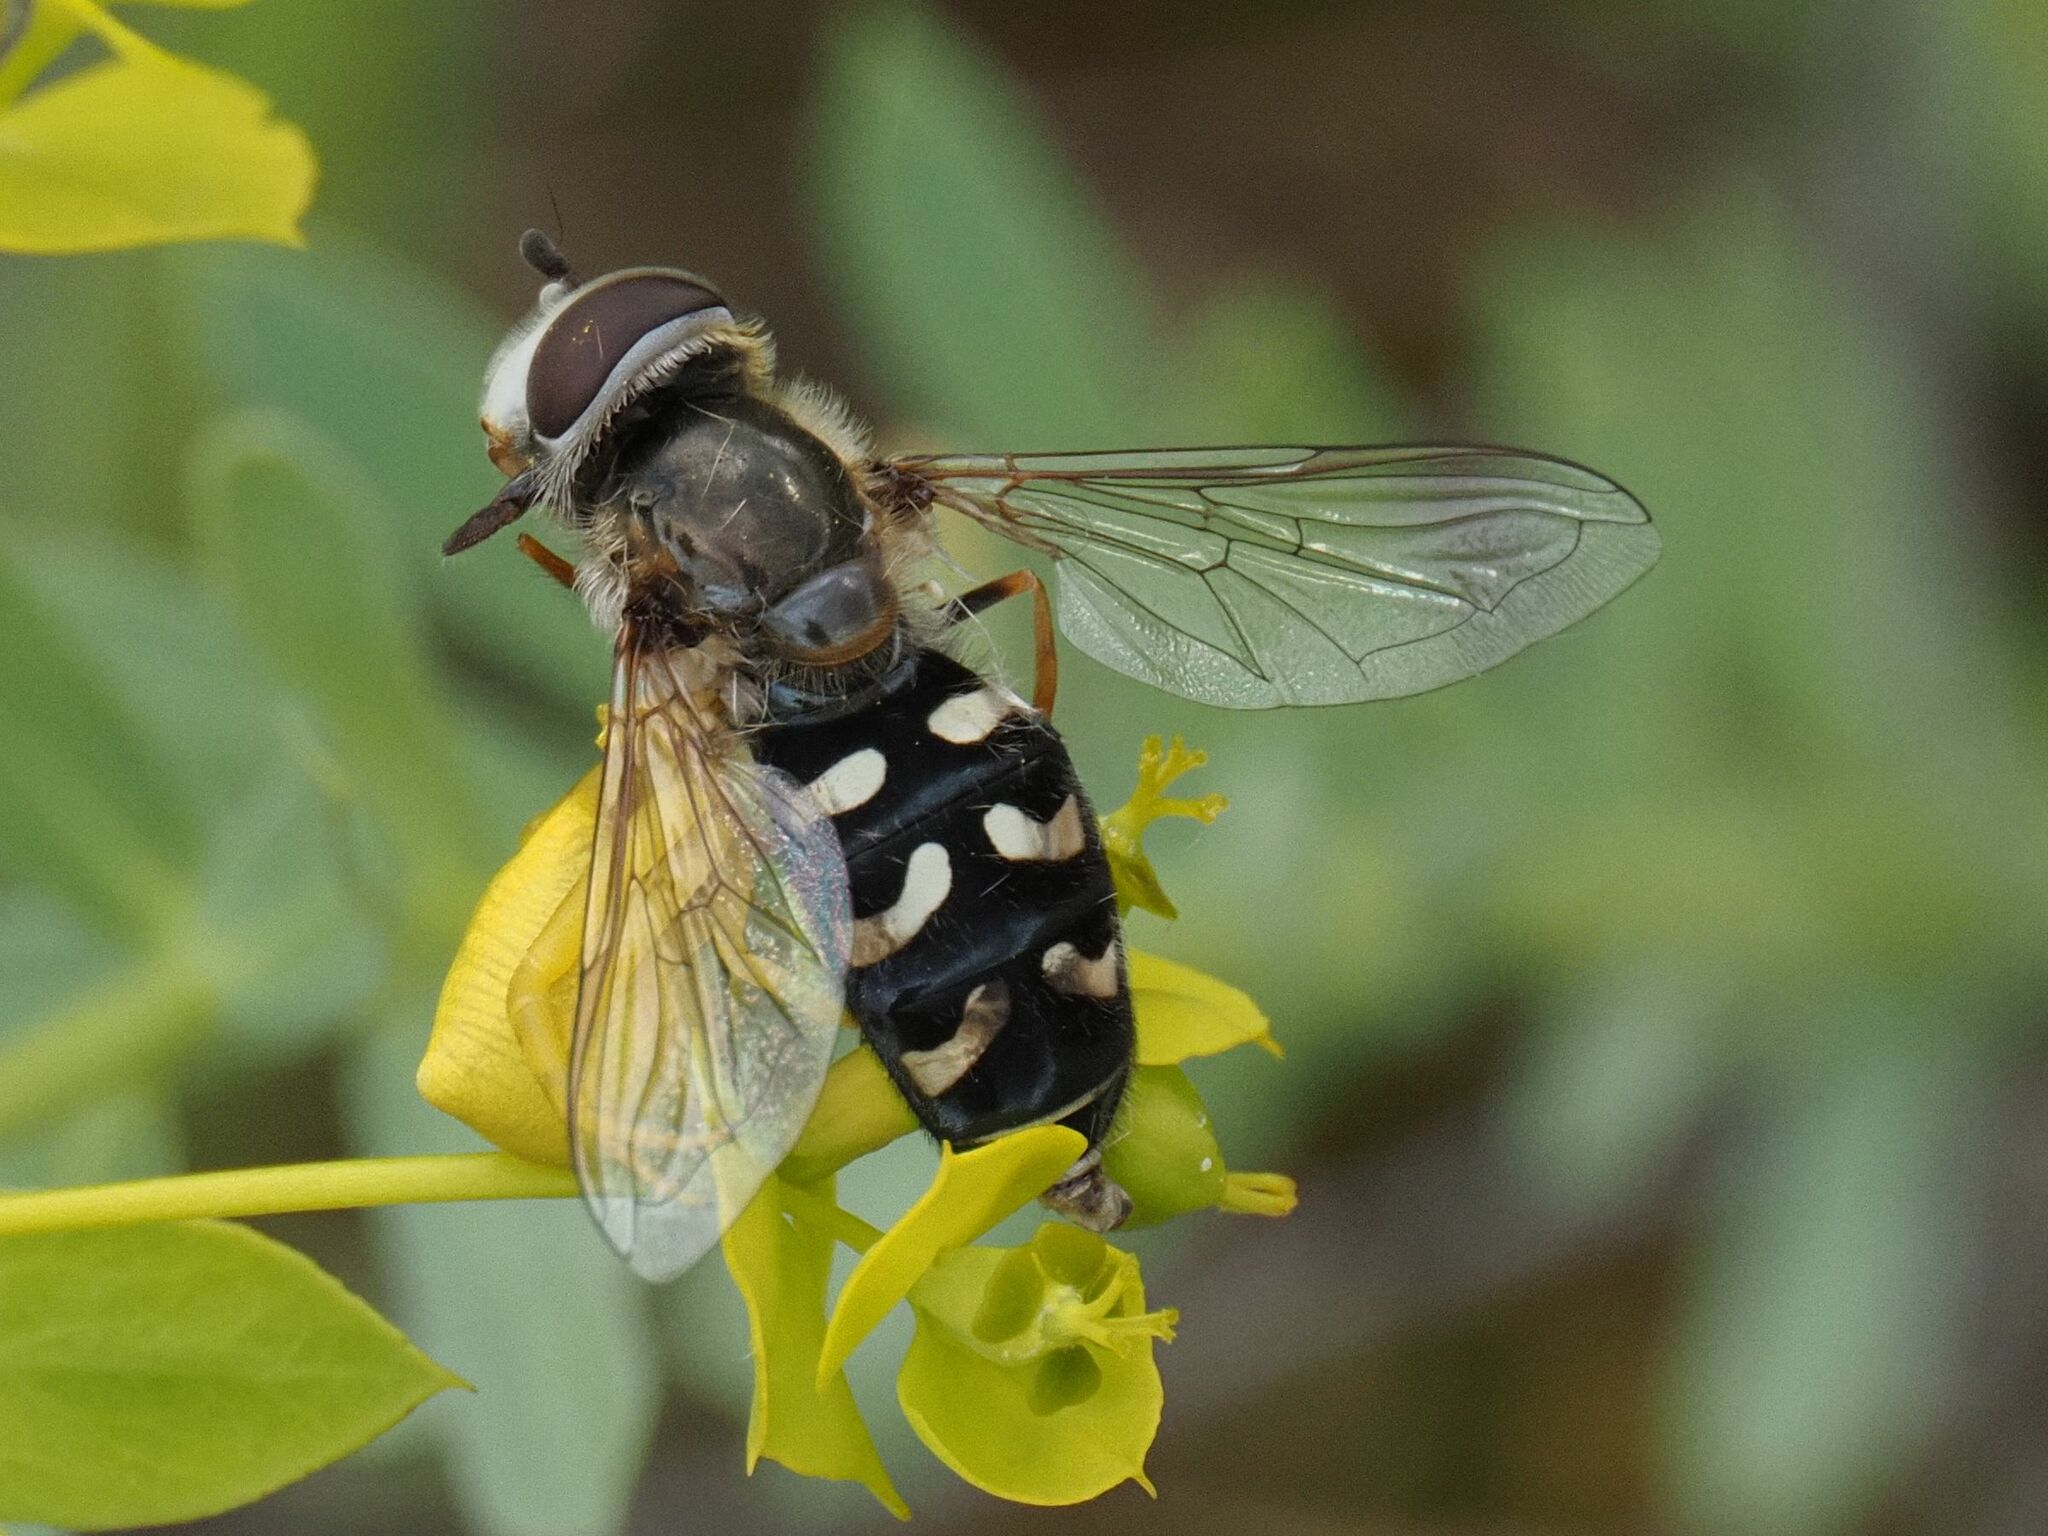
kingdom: Animalia
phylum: Arthropoda
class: Insecta
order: Diptera
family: Syrphidae
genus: Scaeva
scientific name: Scaeva pyrastri
